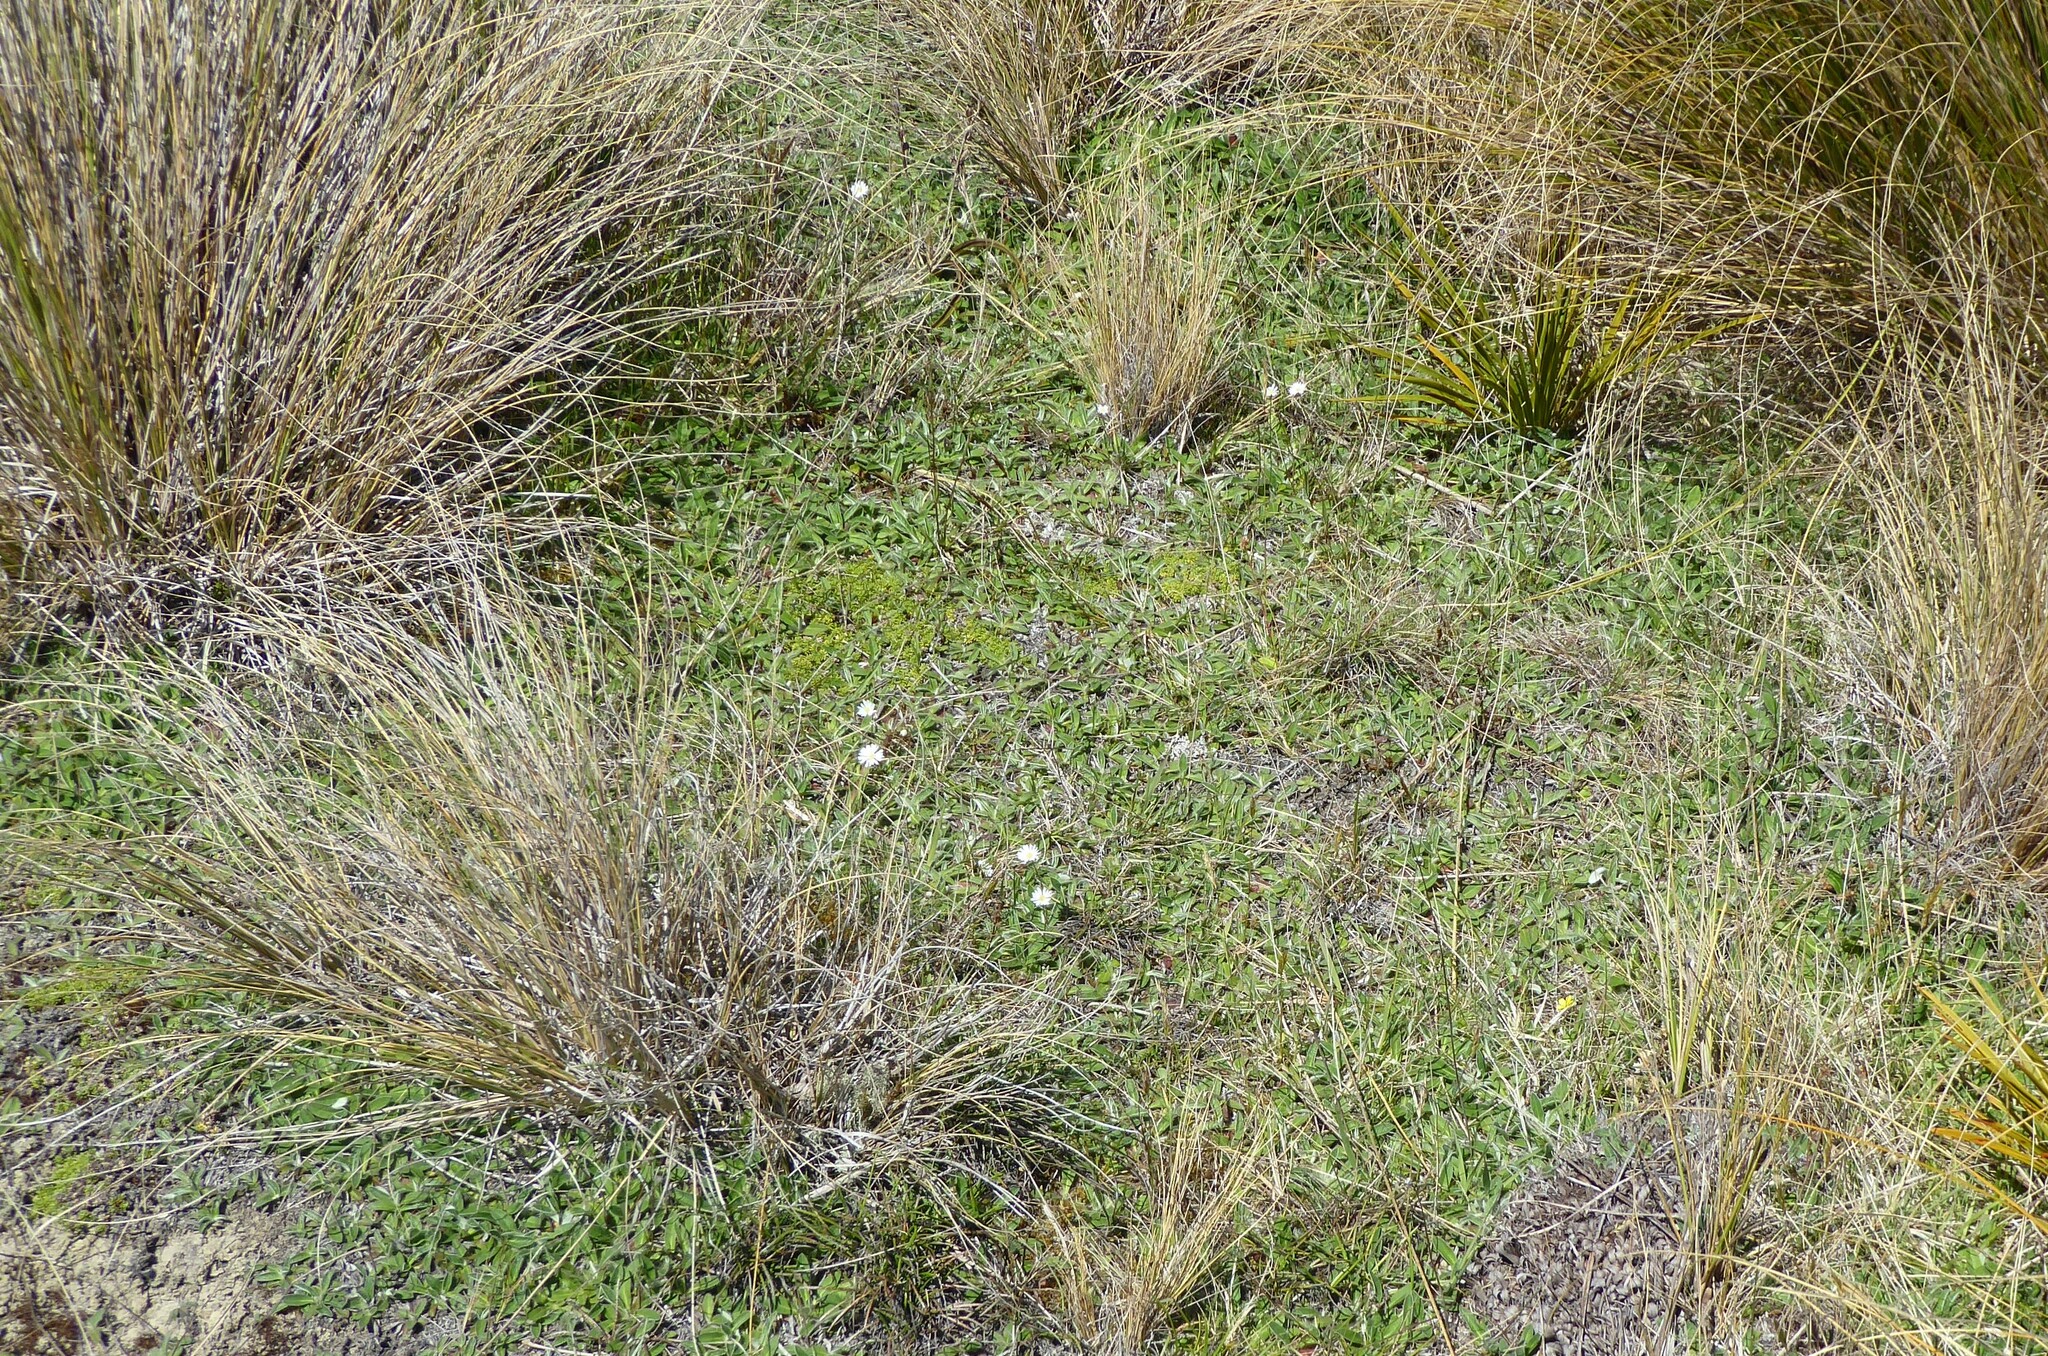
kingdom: Plantae
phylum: Tracheophyta
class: Magnoliopsida
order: Asterales
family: Asteraceae
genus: Brachyscome
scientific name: Brachyscome longiscapa
